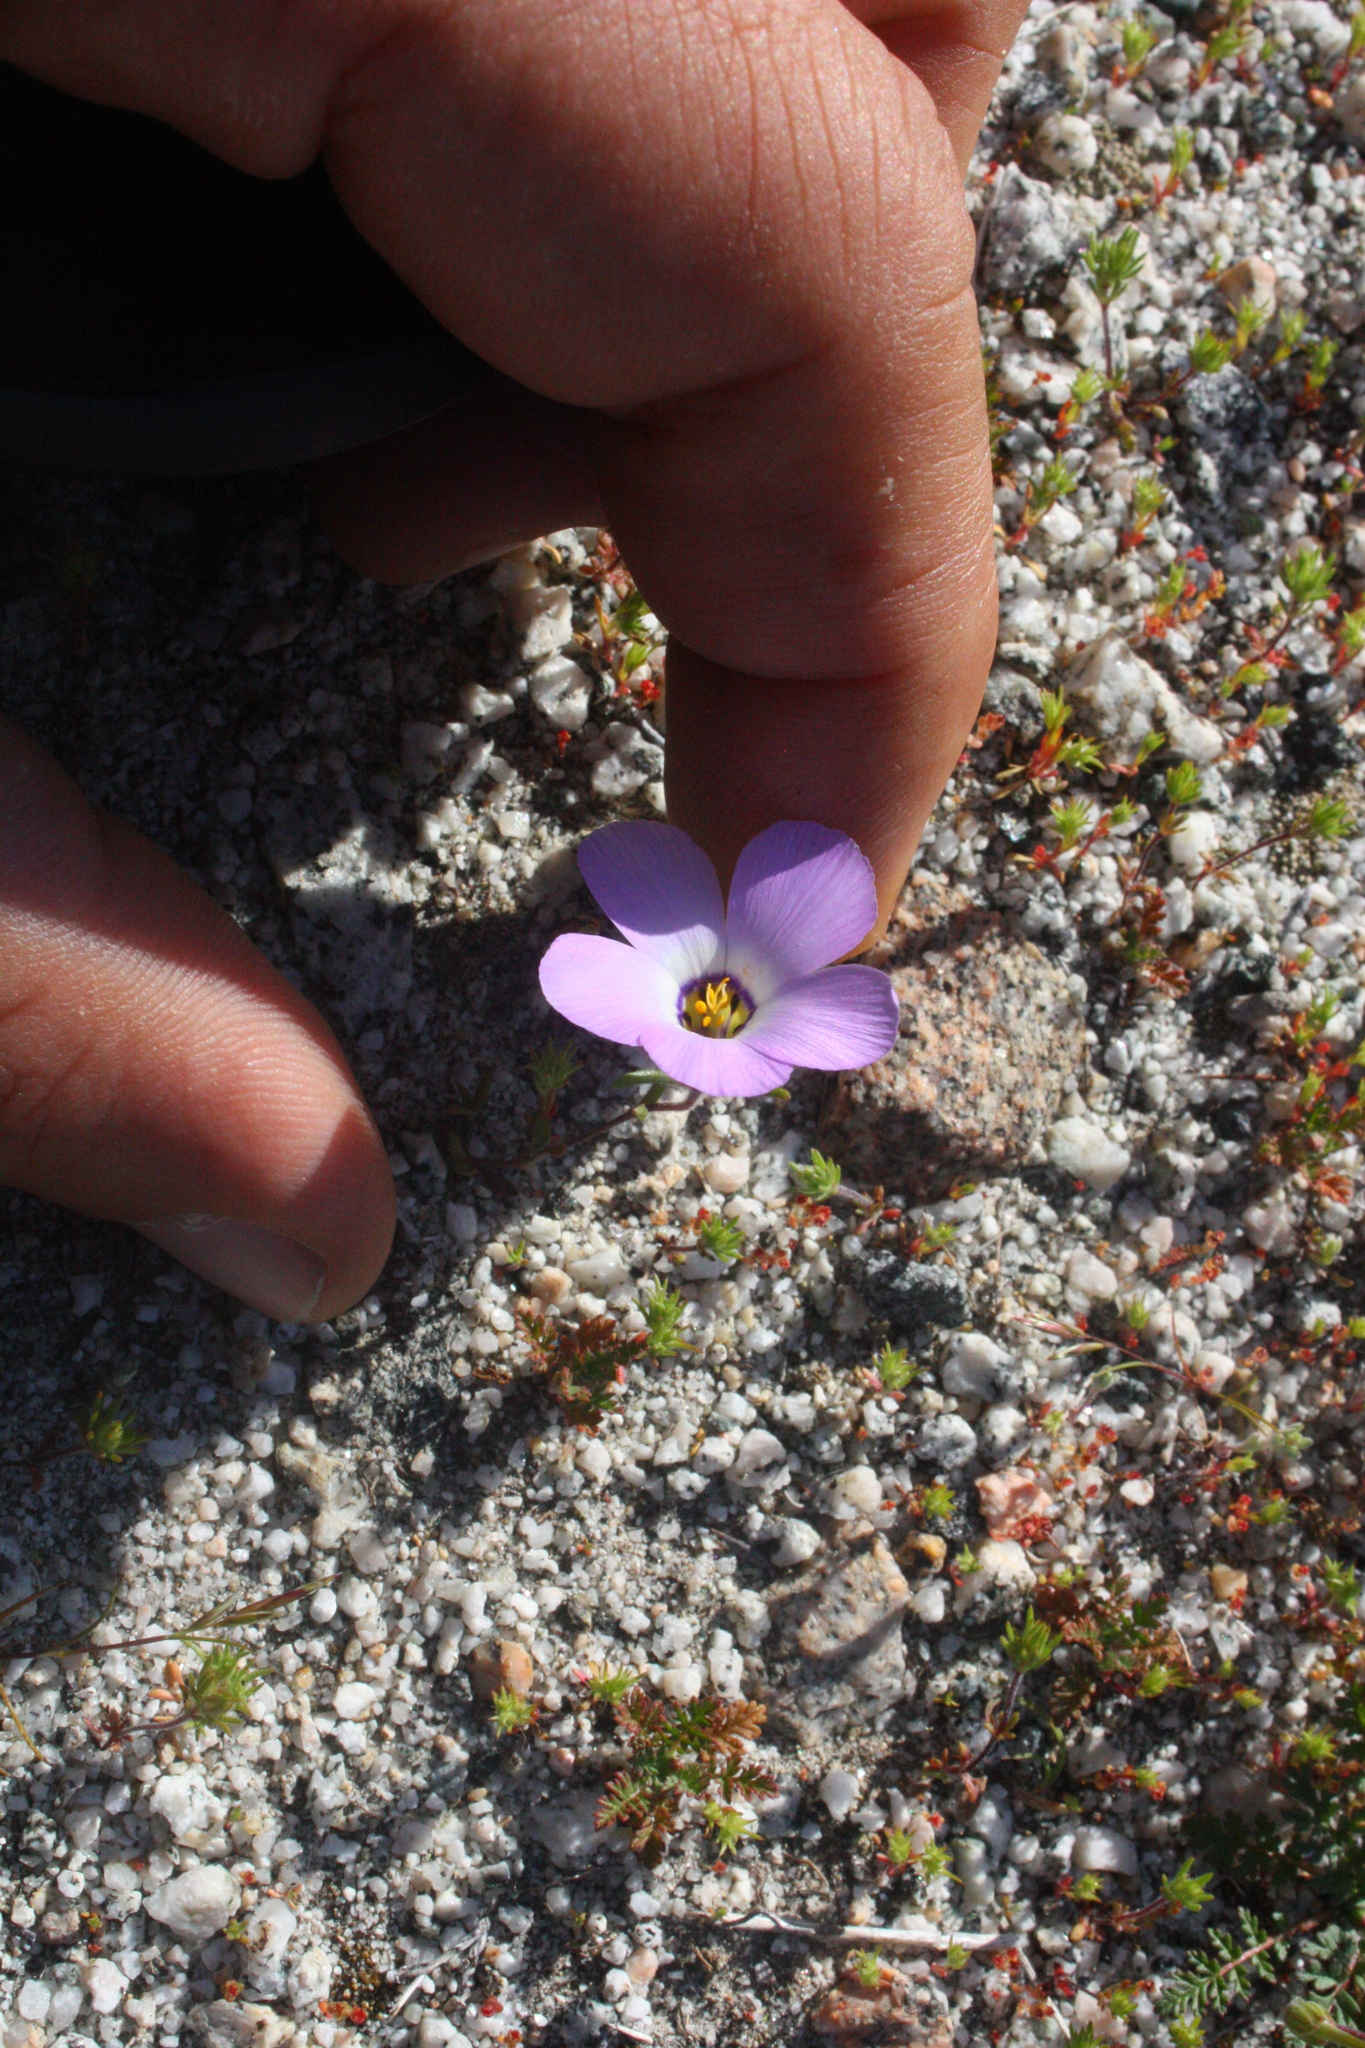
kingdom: Plantae
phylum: Tracheophyta
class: Magnoliopsida
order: Ericales
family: Polemoniaceae
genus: Linanthus
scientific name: Linanthus dianthiflorus
